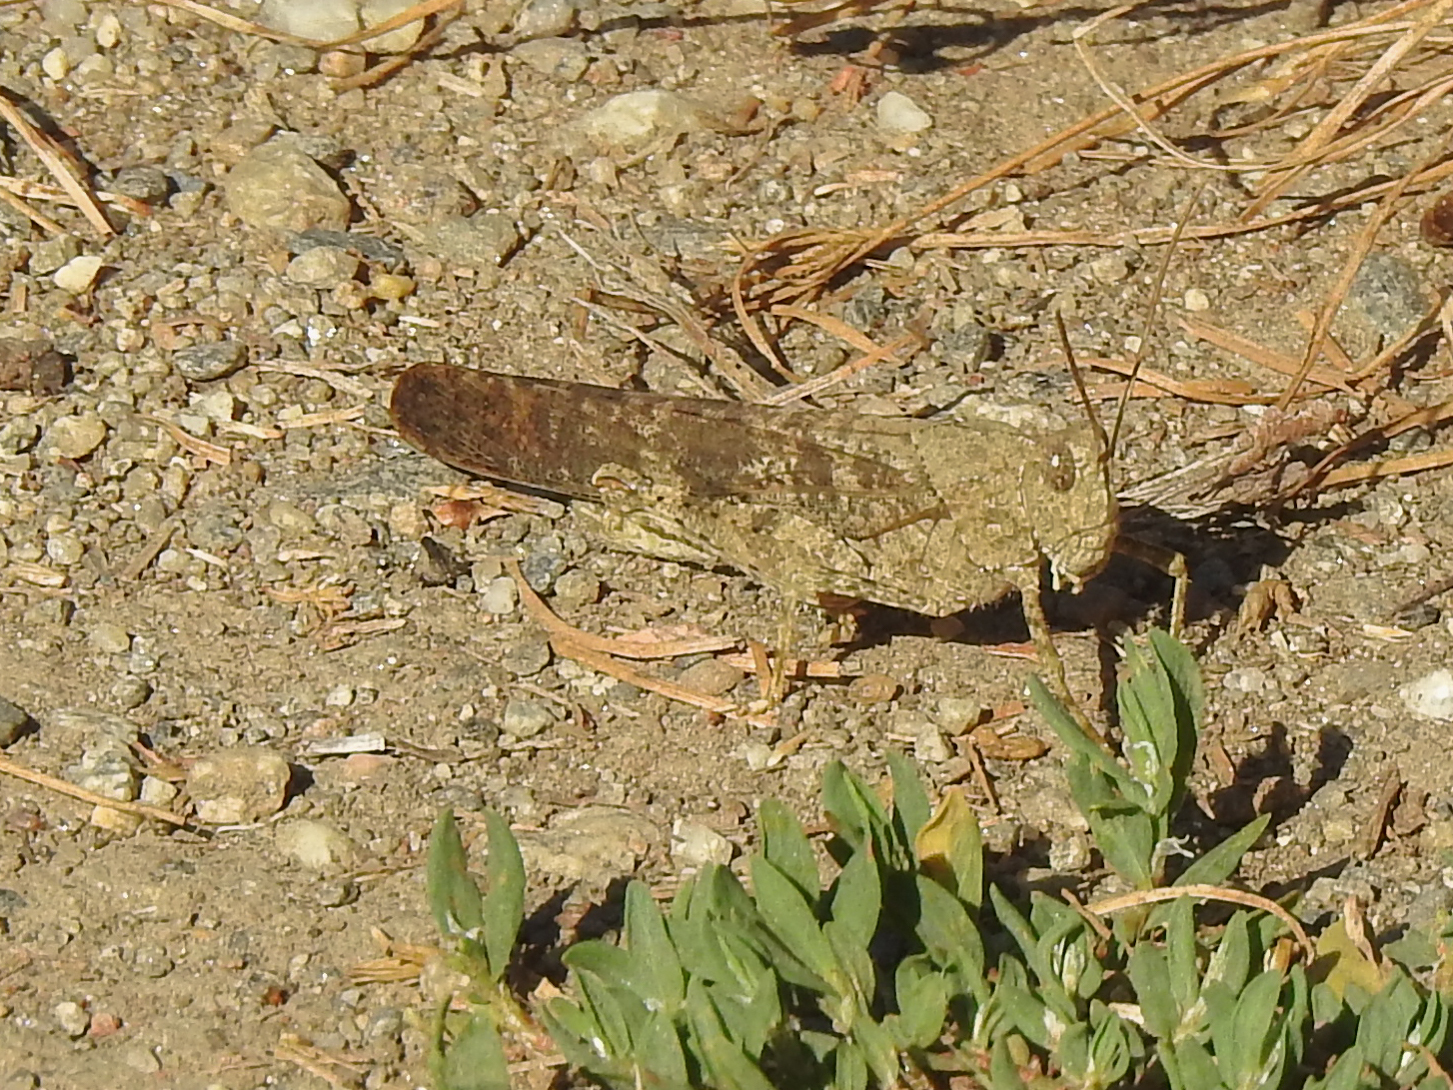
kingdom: Animalia
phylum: Arthropoda
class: Insecta
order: Orthoptera
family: Acrididae
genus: Dissosteira
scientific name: Dissosteira carolina
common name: Carolina grasshopper
